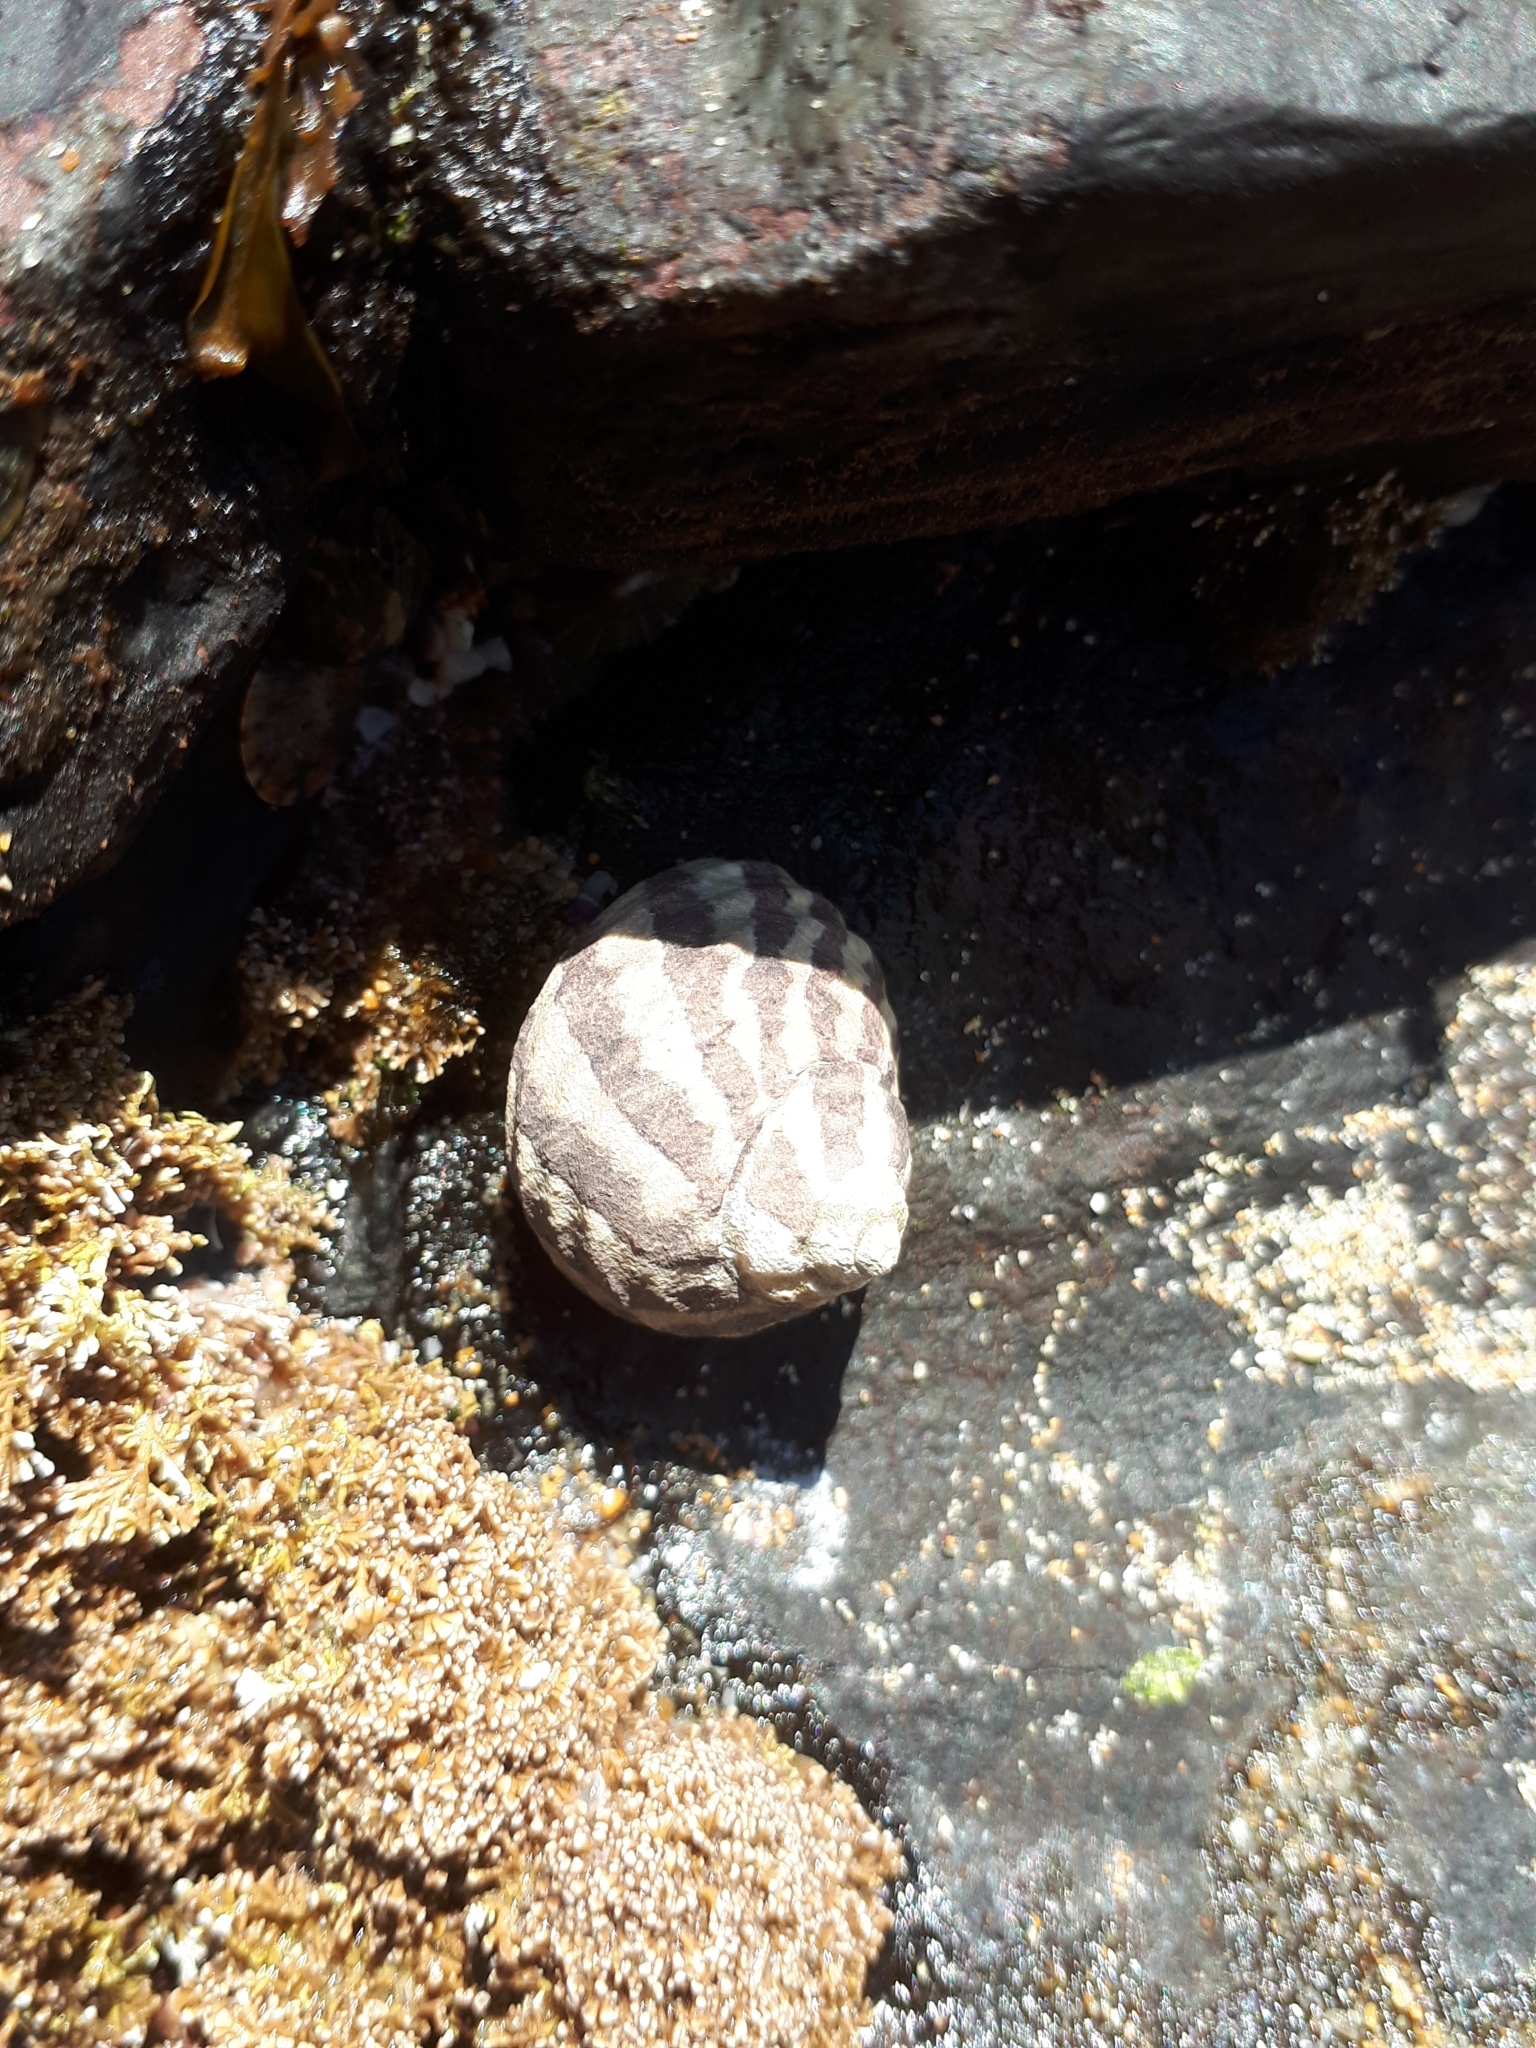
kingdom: Animalia
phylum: Mollusca
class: Gastropoda
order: Trochida
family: Trochidae
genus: Austrocochlea
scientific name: Austrocochlea porcata
